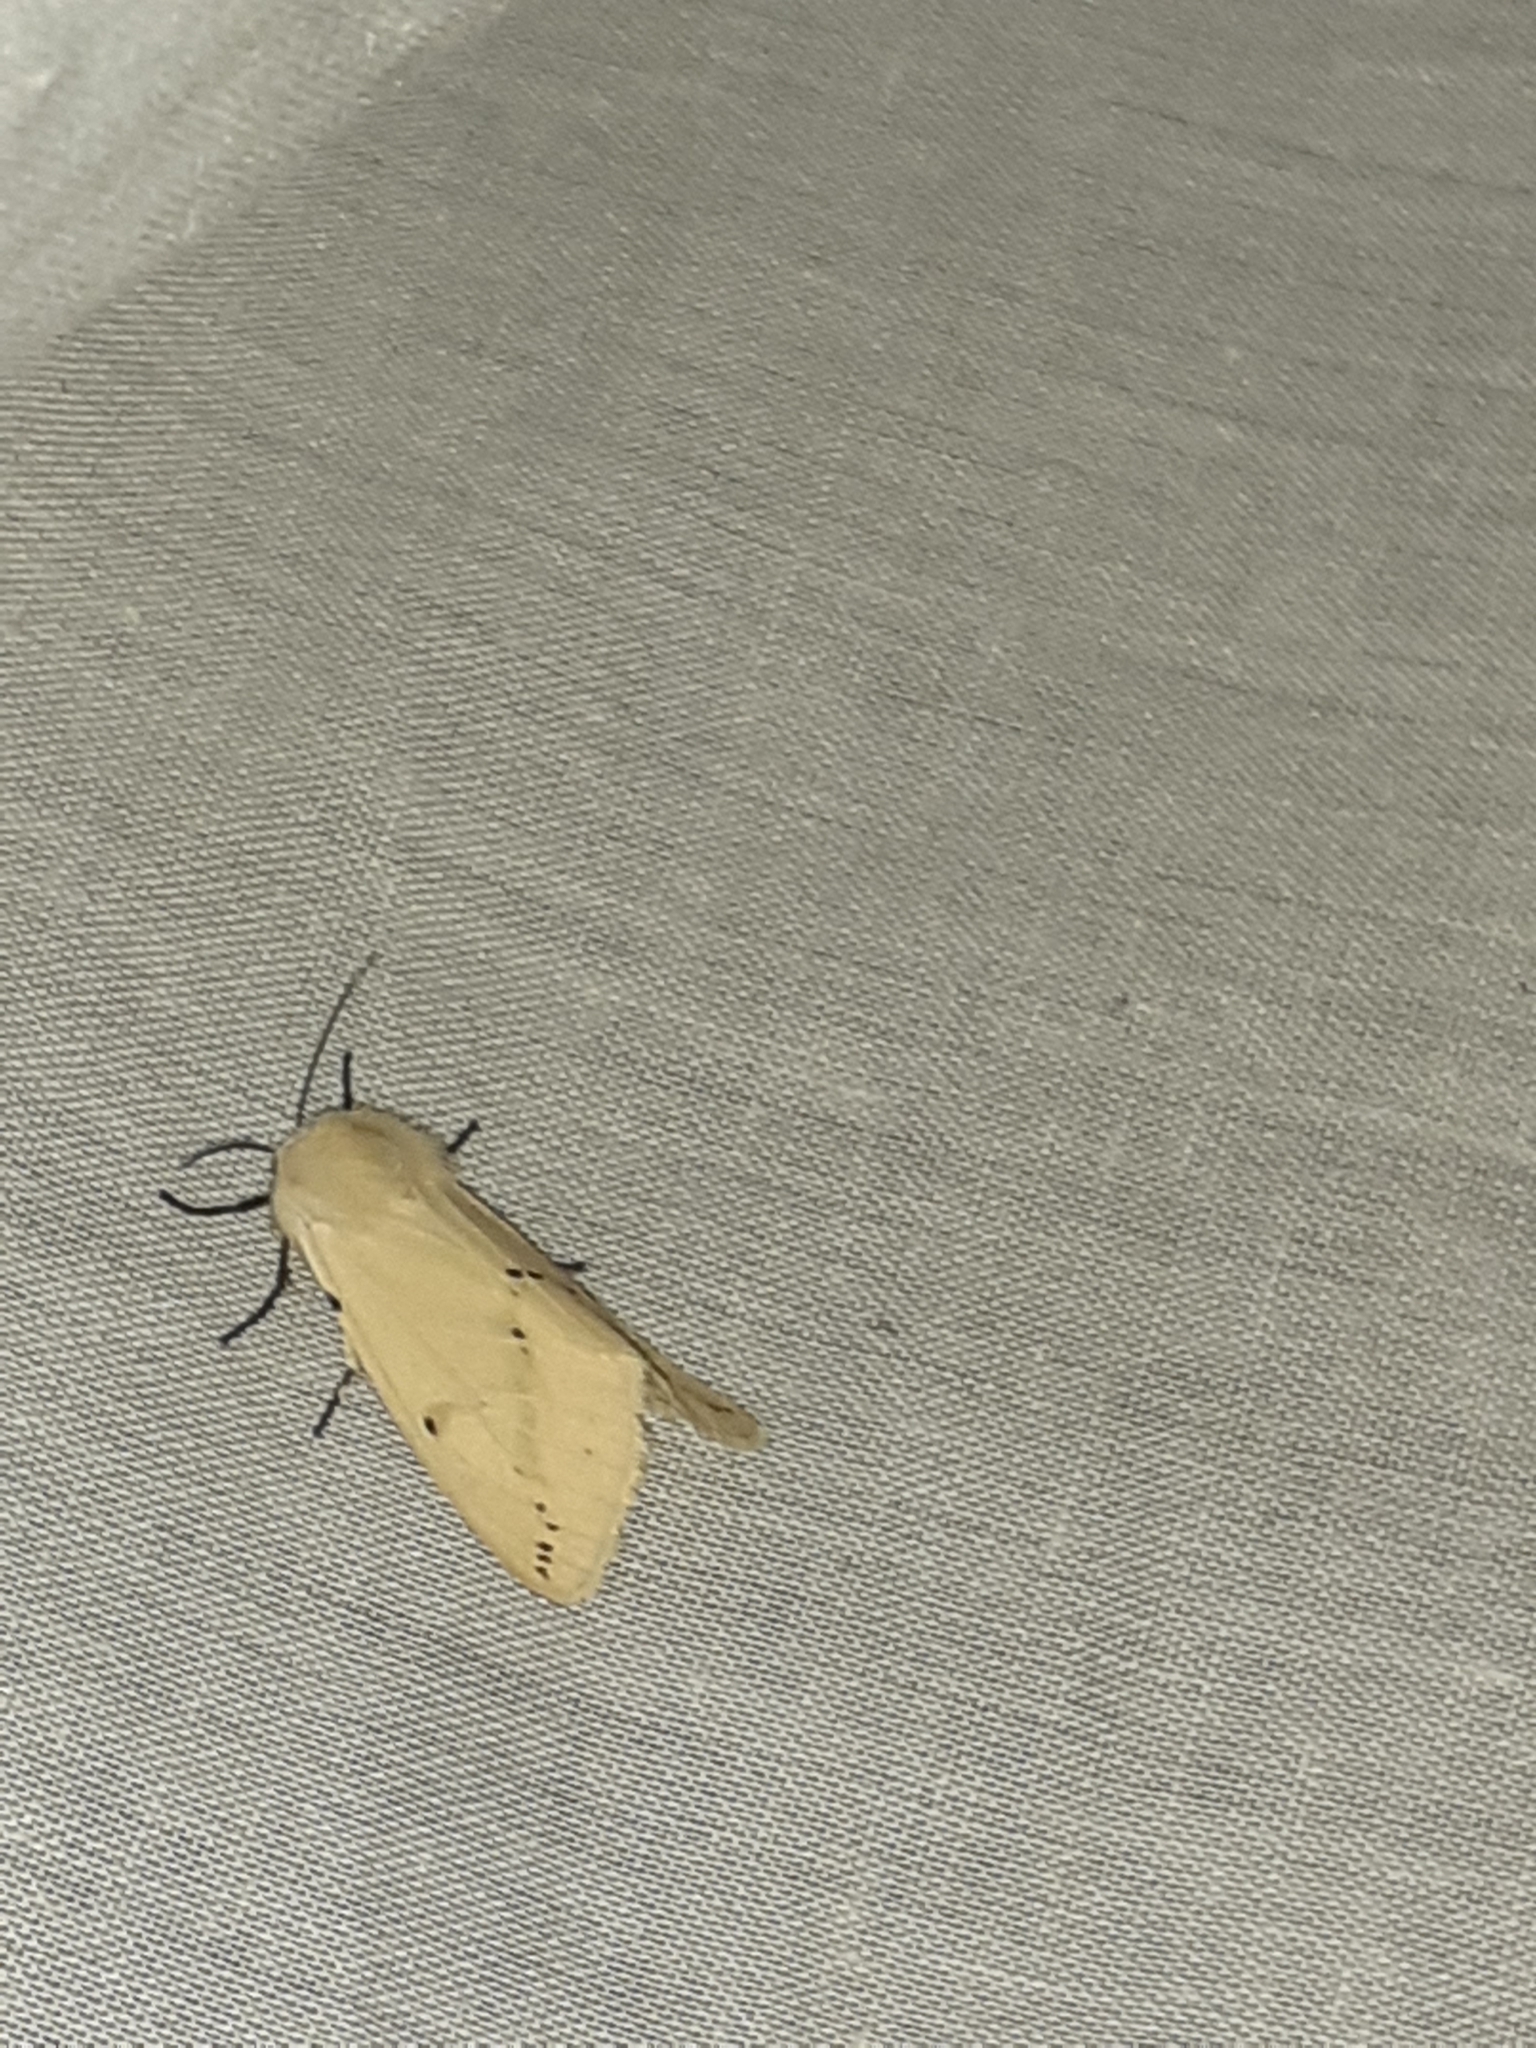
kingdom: Animalia
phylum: Arthropoda
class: Insecta
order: Lepidoptera
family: Erebidae
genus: Spilarctia
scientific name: Spilarctia lutea
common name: Buff ermine
